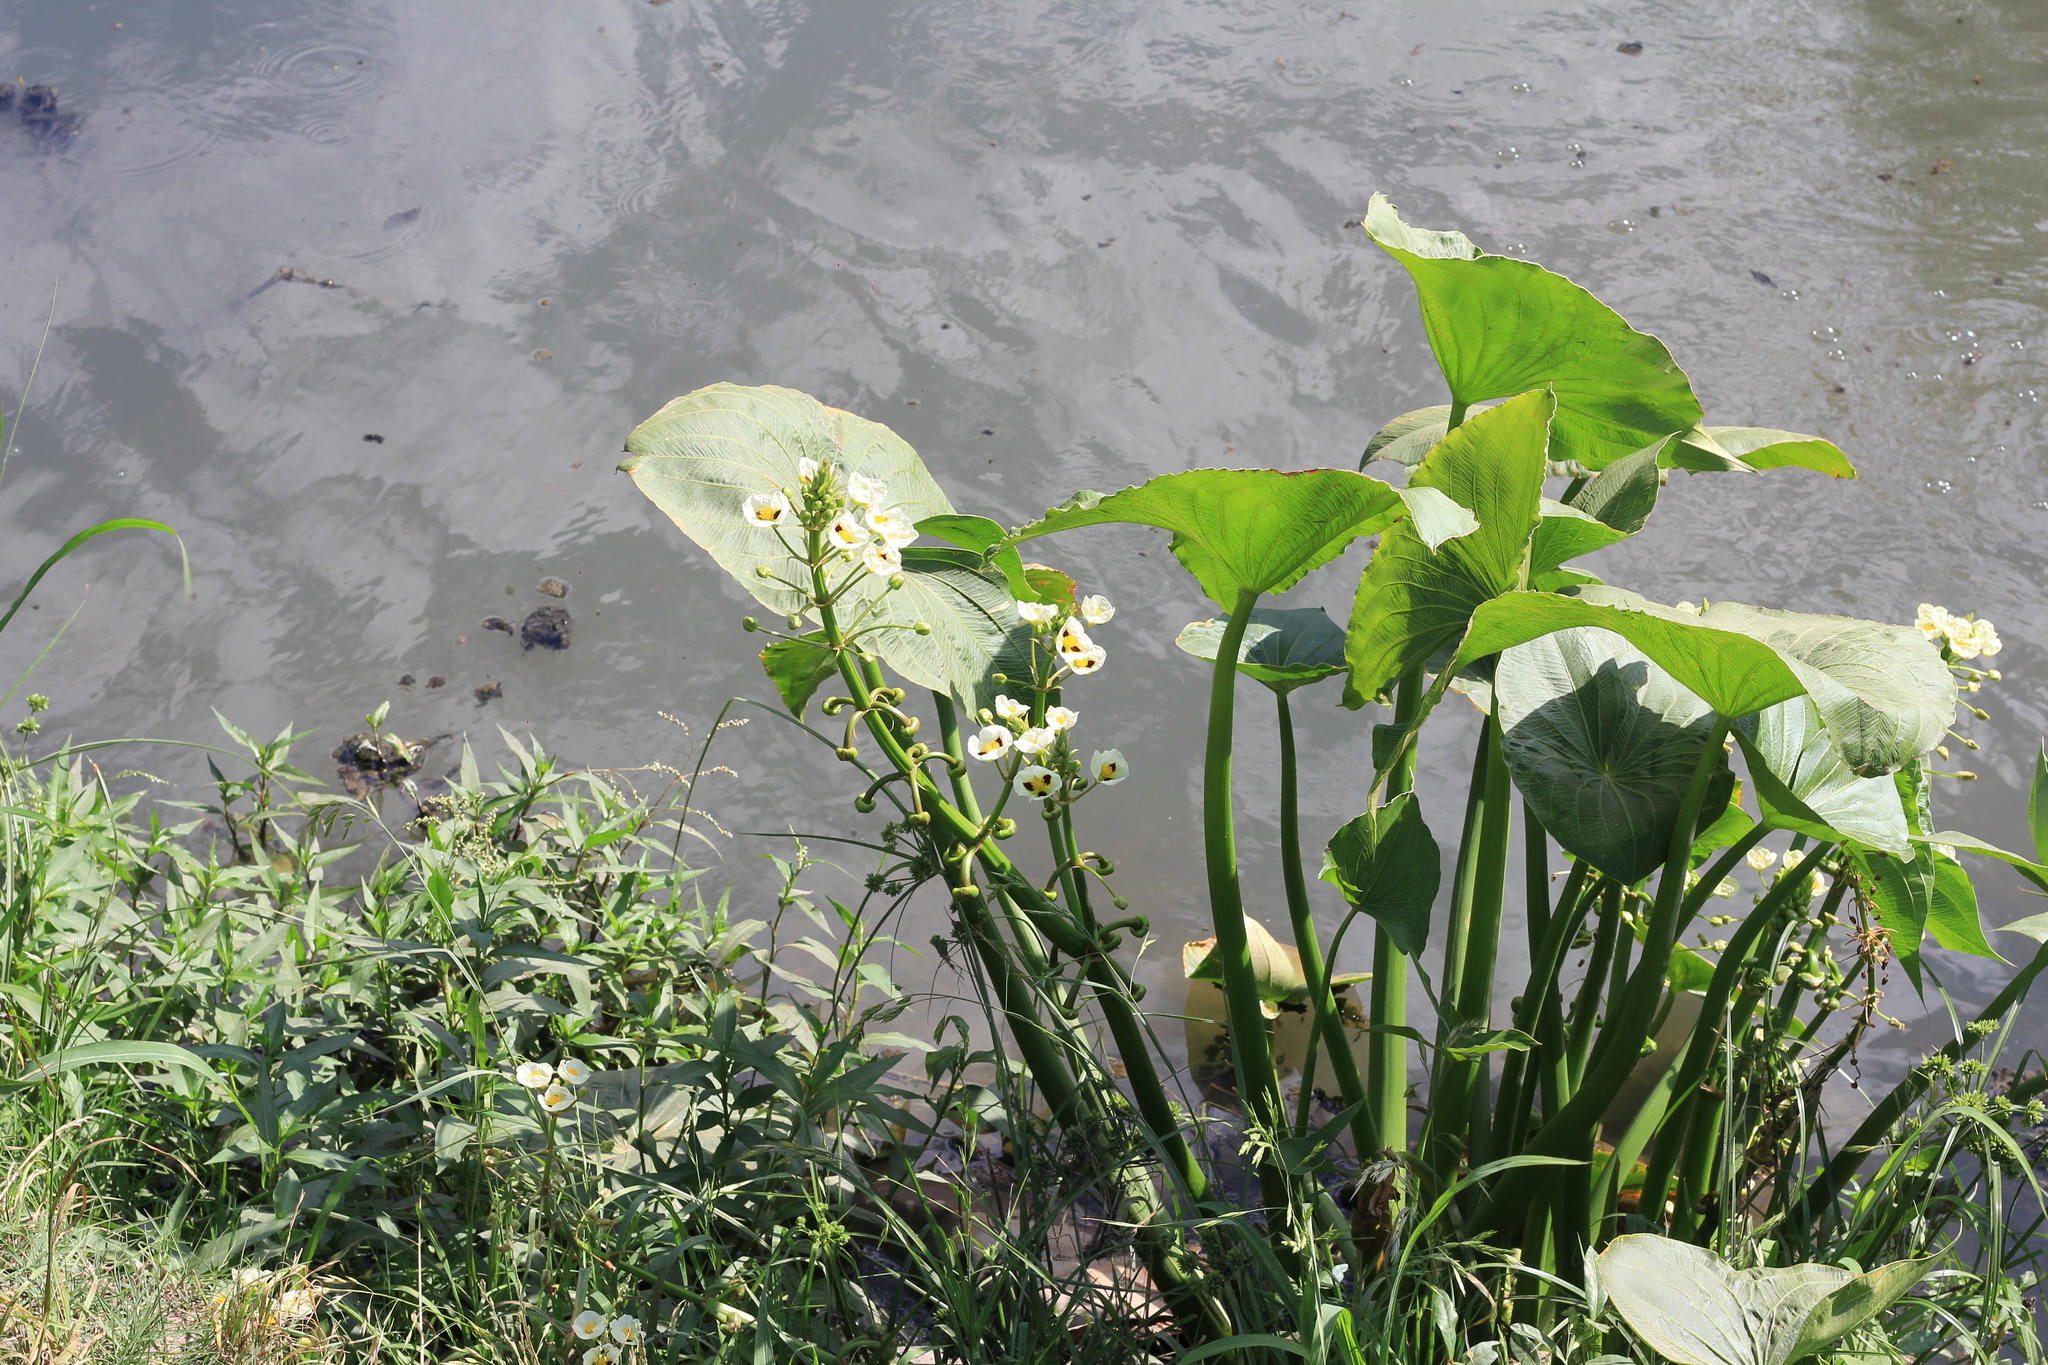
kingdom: Plantae
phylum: Tracheophyta
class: Liliopsida
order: Alismatales
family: Alismataceae
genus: Sagittaria
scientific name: Sagittaria montevidensis
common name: Giant arrowhead
